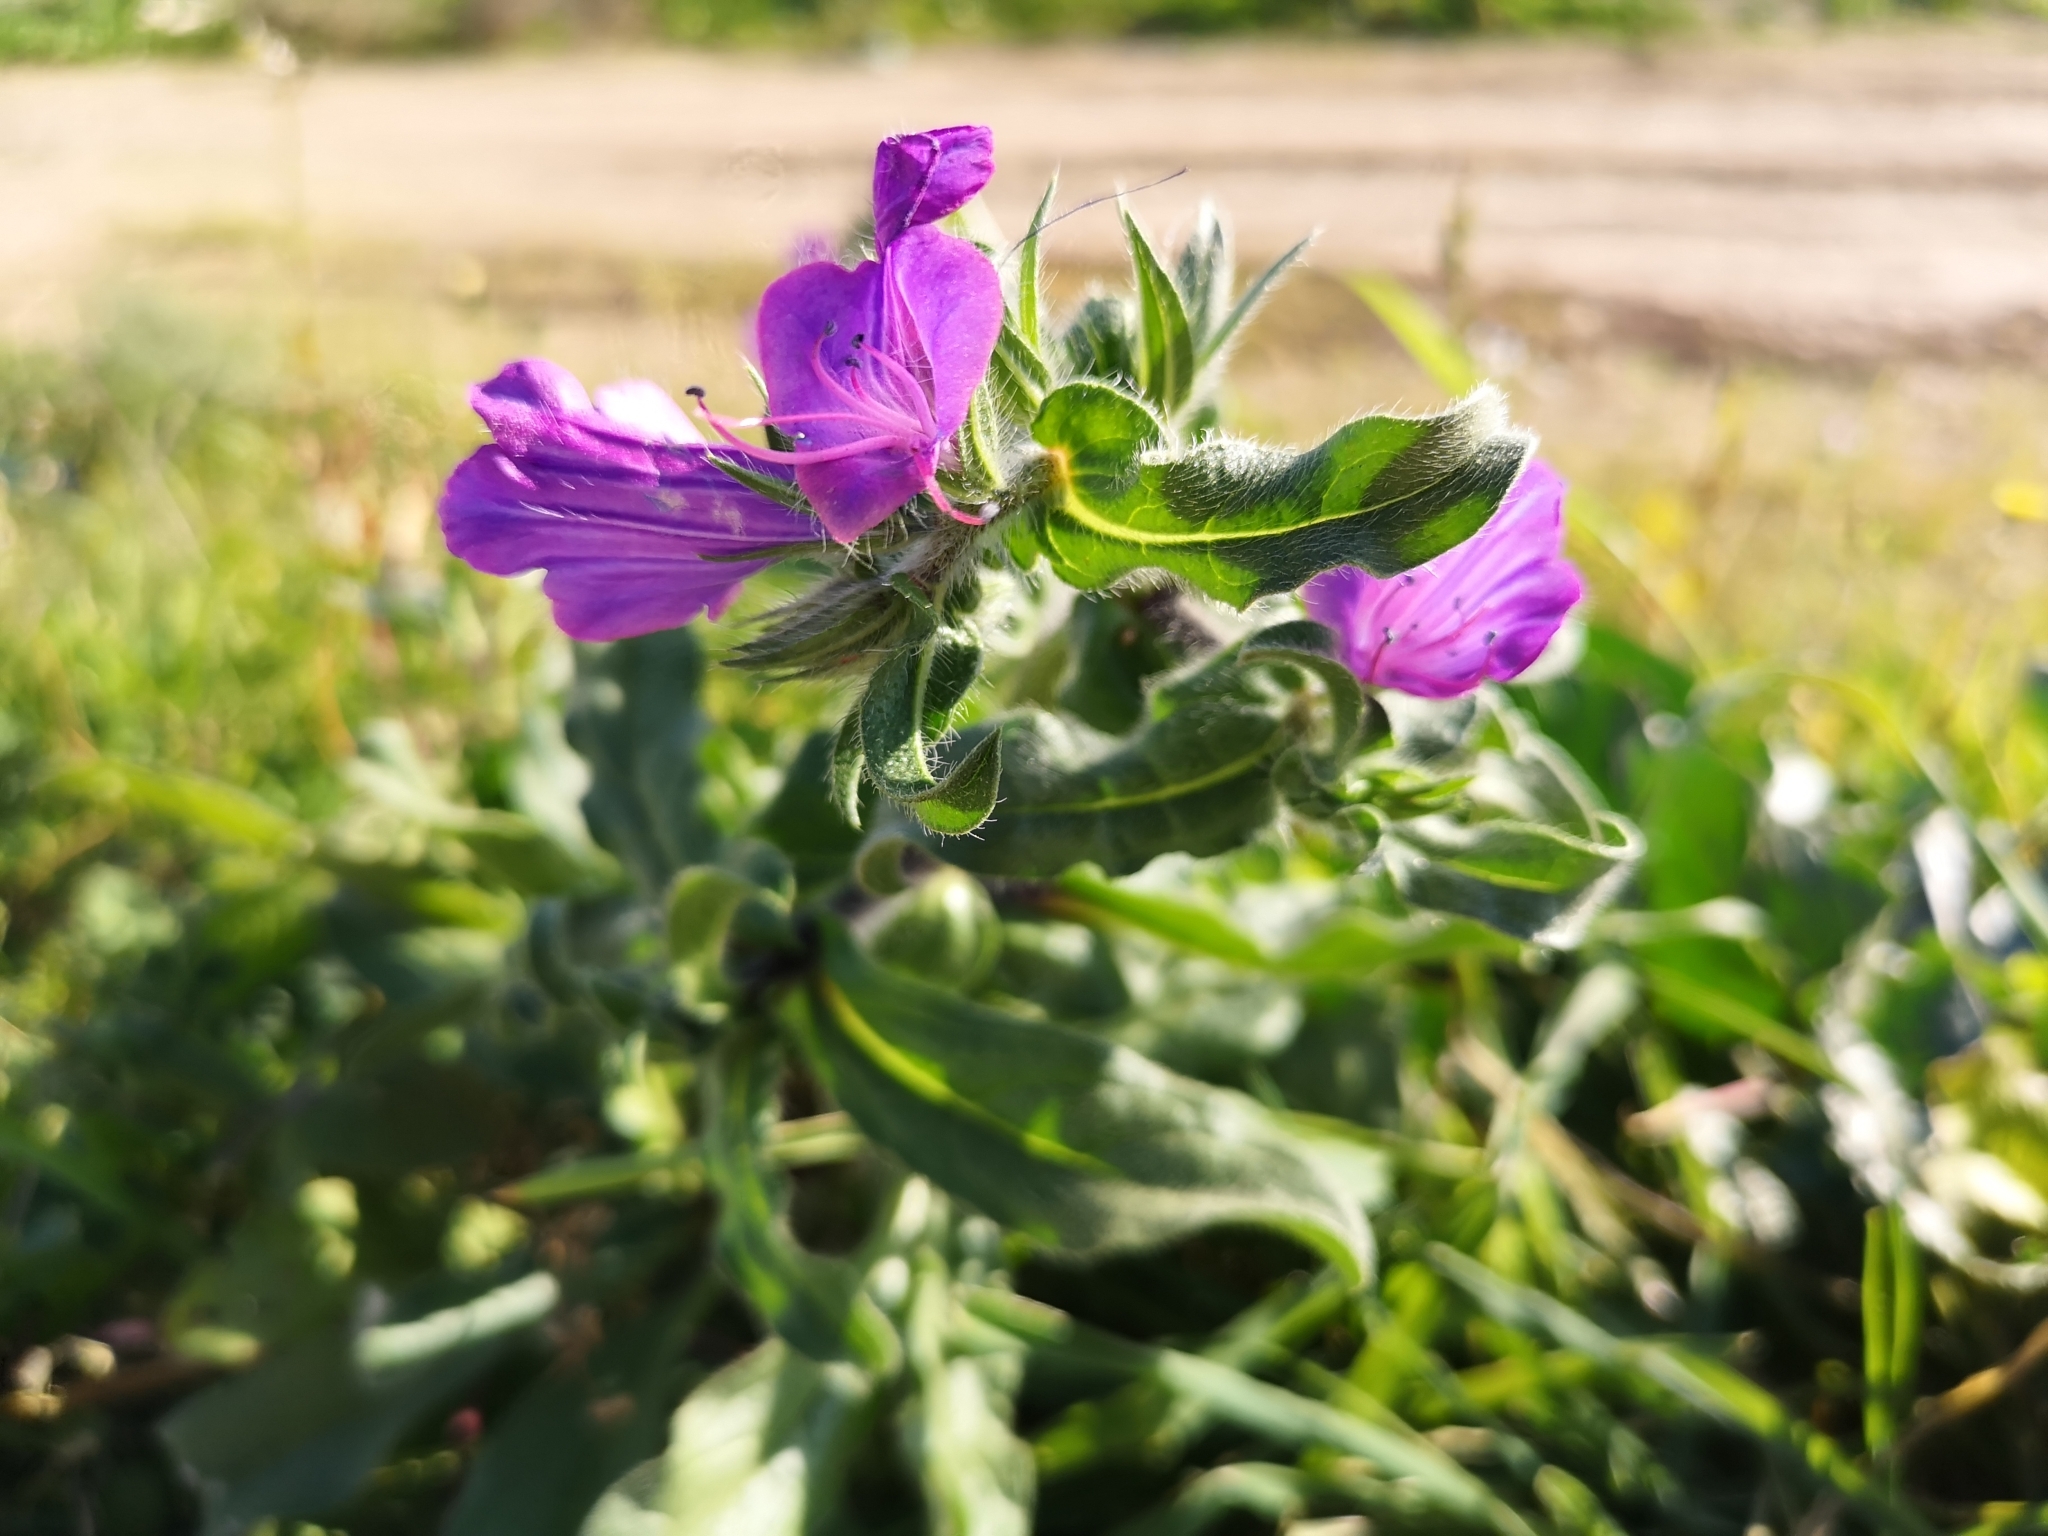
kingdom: Plantae
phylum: Tracheophyta
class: Magnoliopsida
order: Boraginales
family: Boraginaceae
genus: Echium
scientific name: Echium plantagineum
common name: Purple viper's-bugloss
